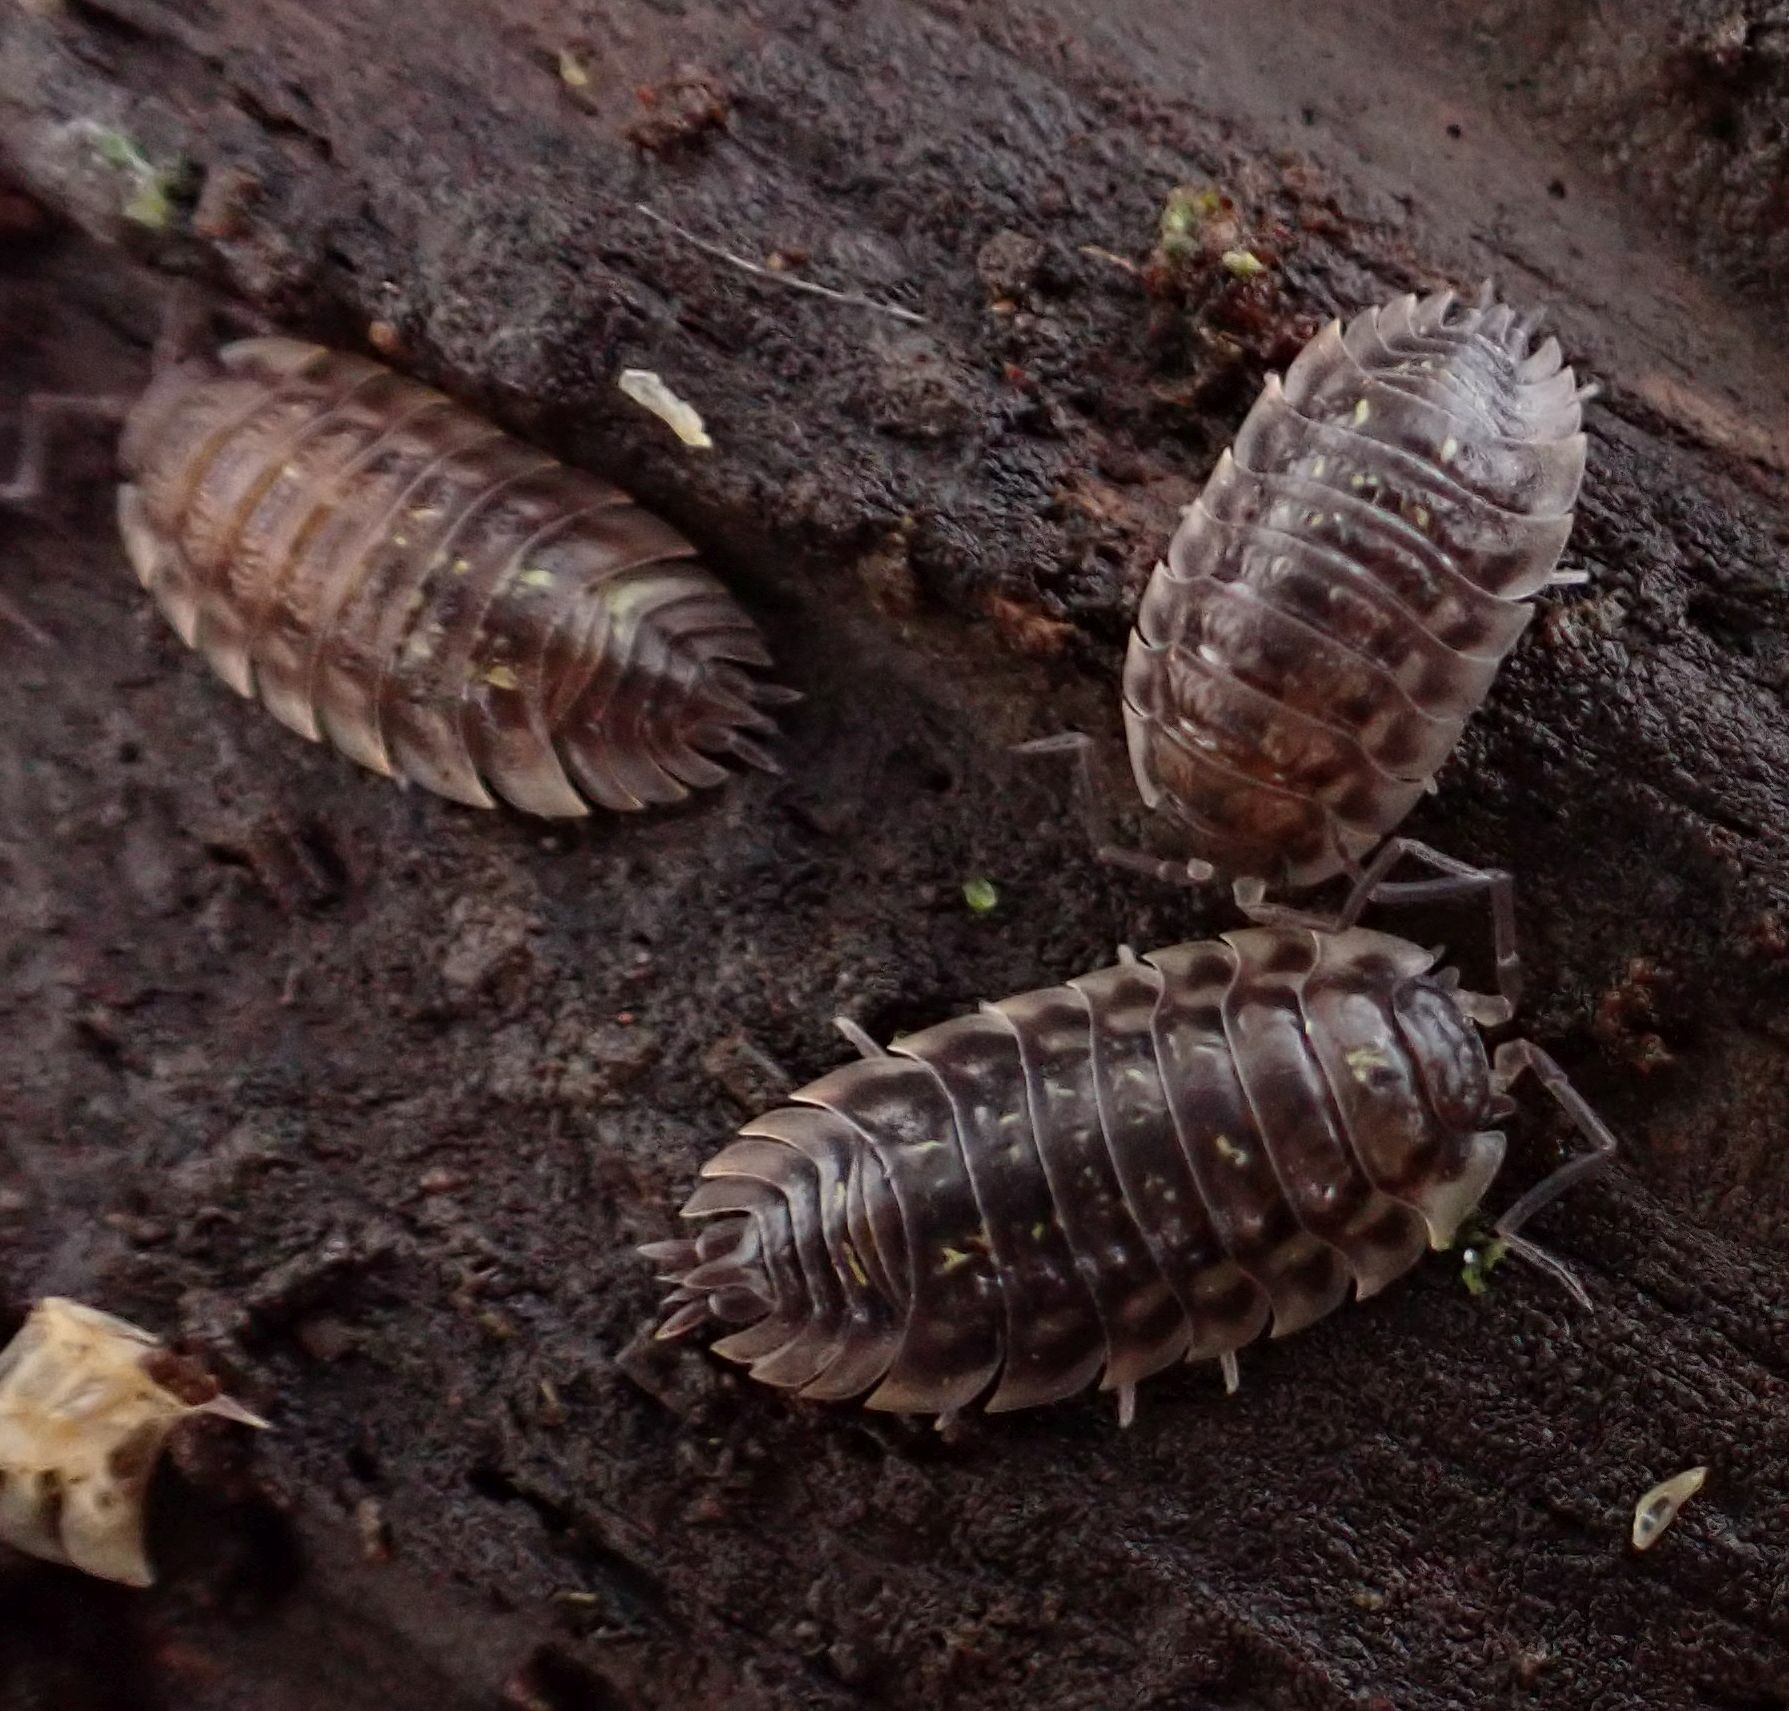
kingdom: Animalia
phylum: Arthropoda
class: Malacostraca
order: Isopoda
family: Oniscidae
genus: Oniscus
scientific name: Oniscus asellus
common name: Common shiny woodlouse
